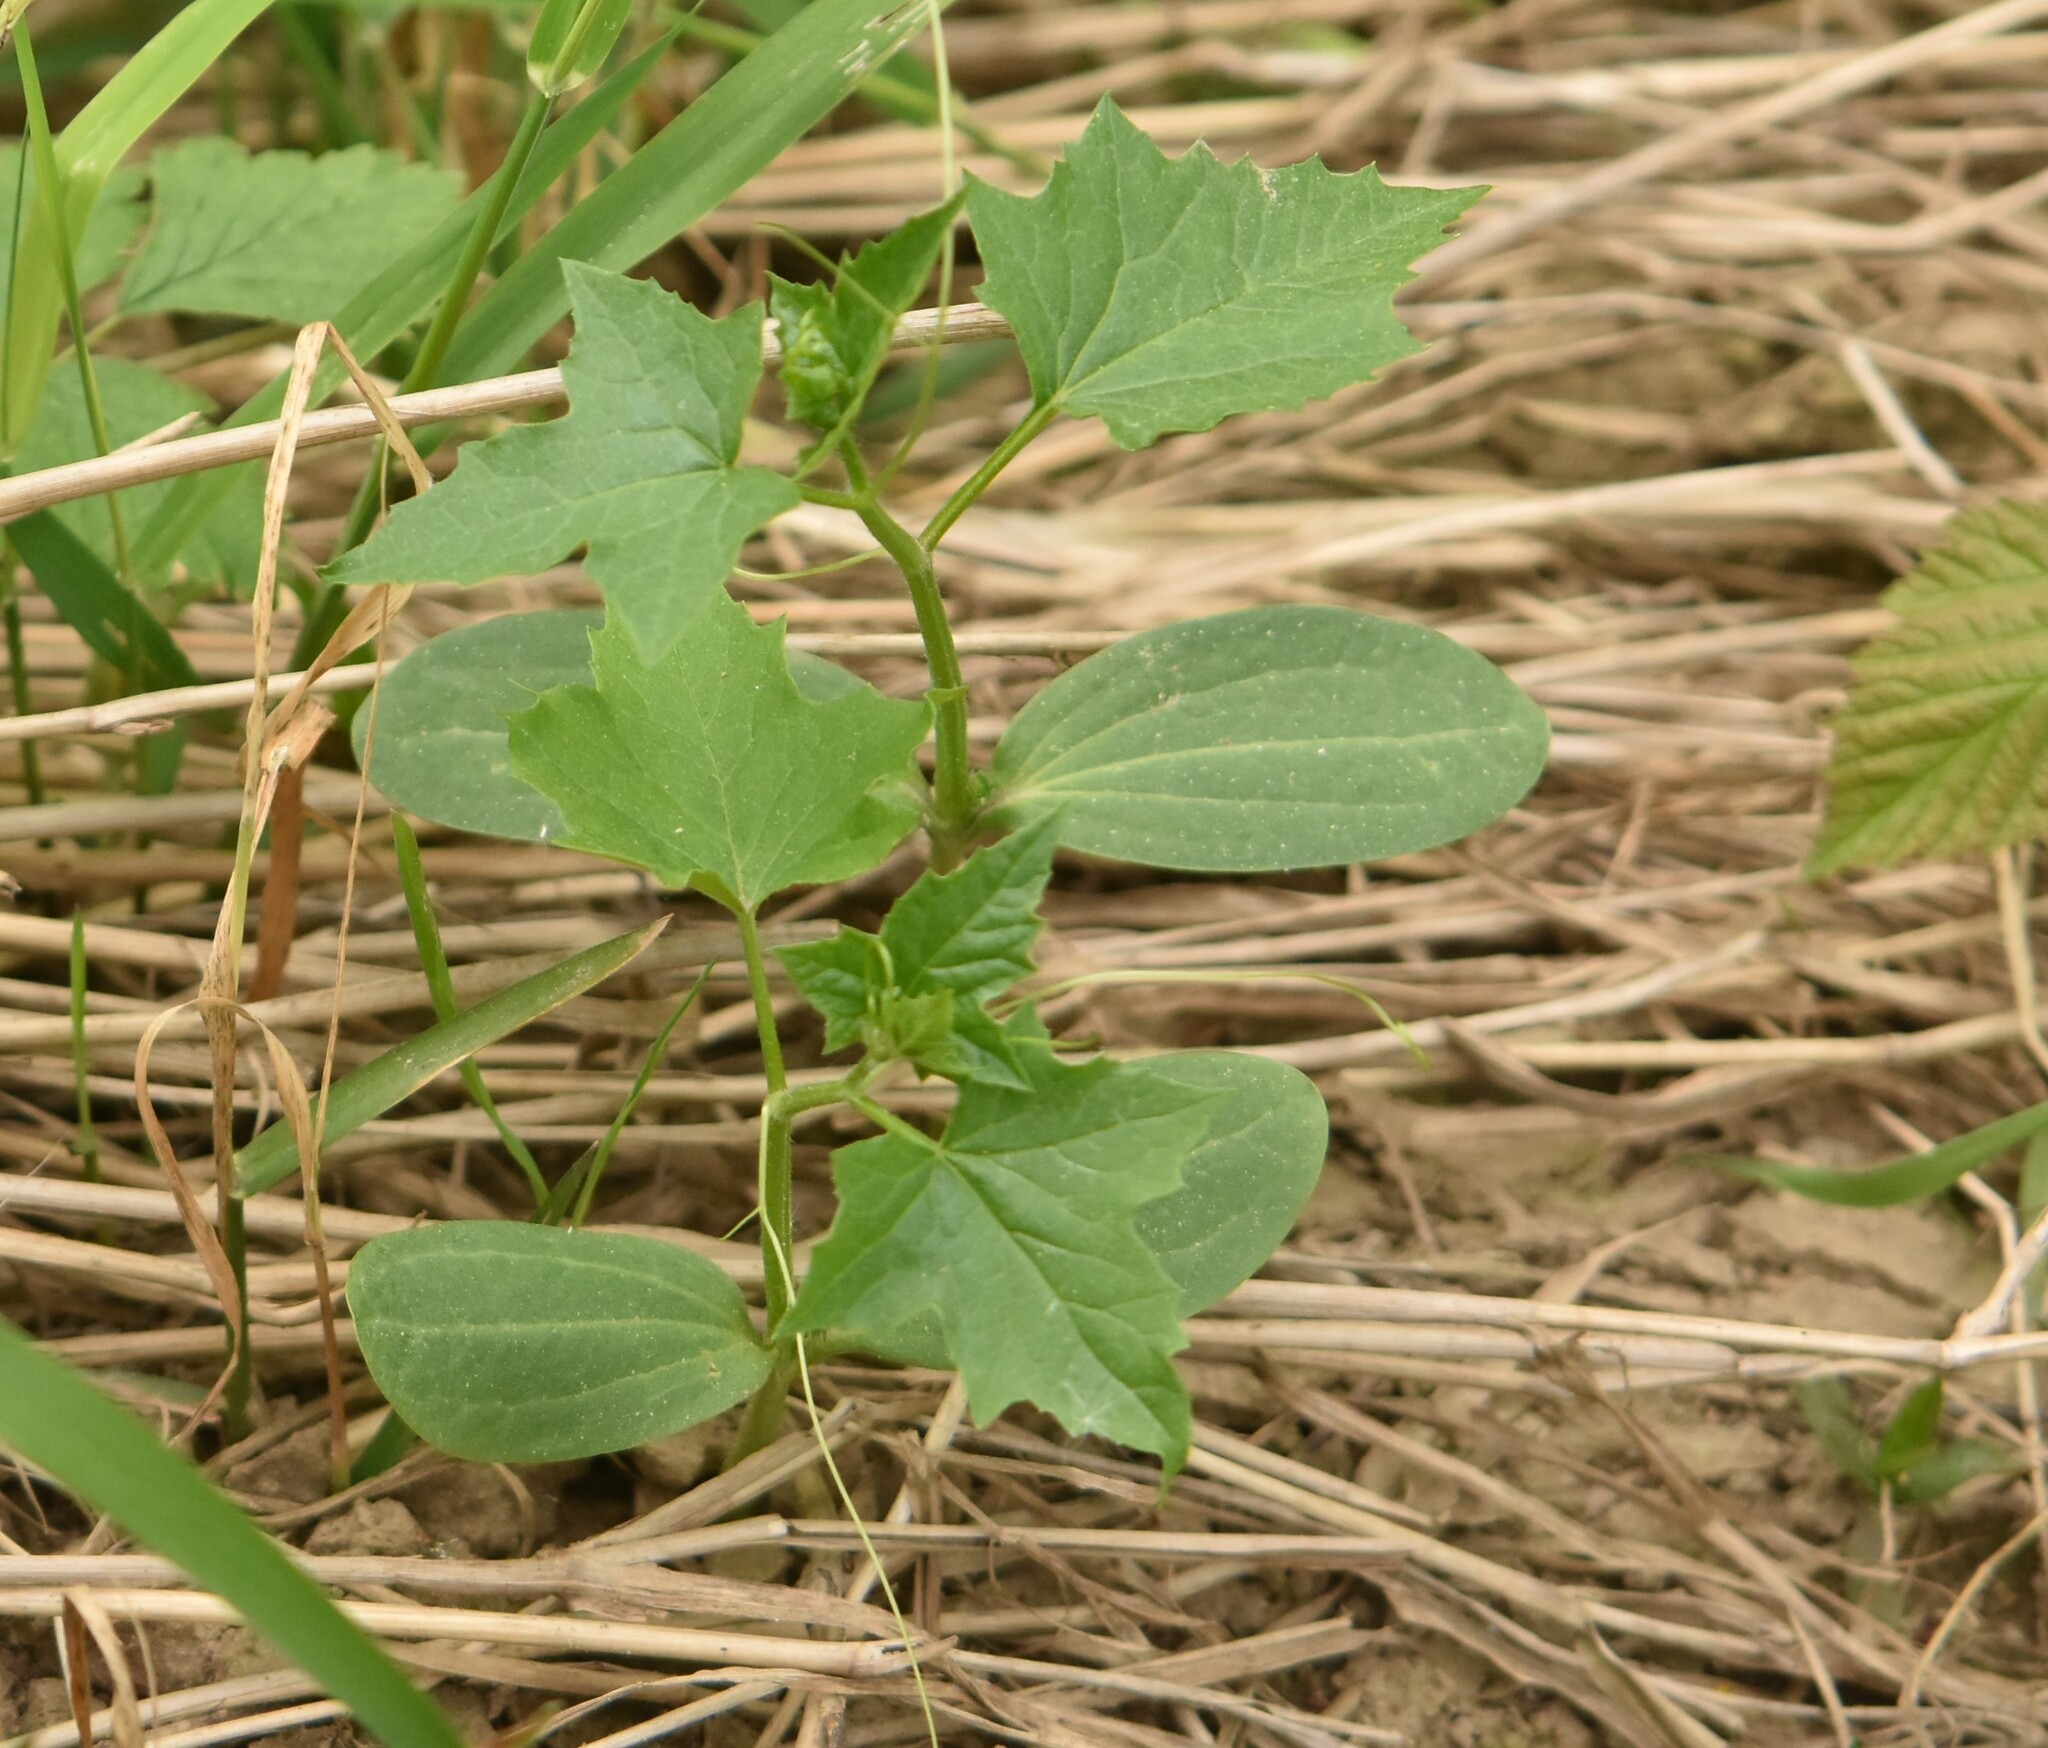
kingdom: Plantae
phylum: Tracheophyta
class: Magnoliopsida
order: Cucurbitales
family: Cucurbitaceae
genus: Echinocystis
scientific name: Echinocystis lobata
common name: Wild cucumber
